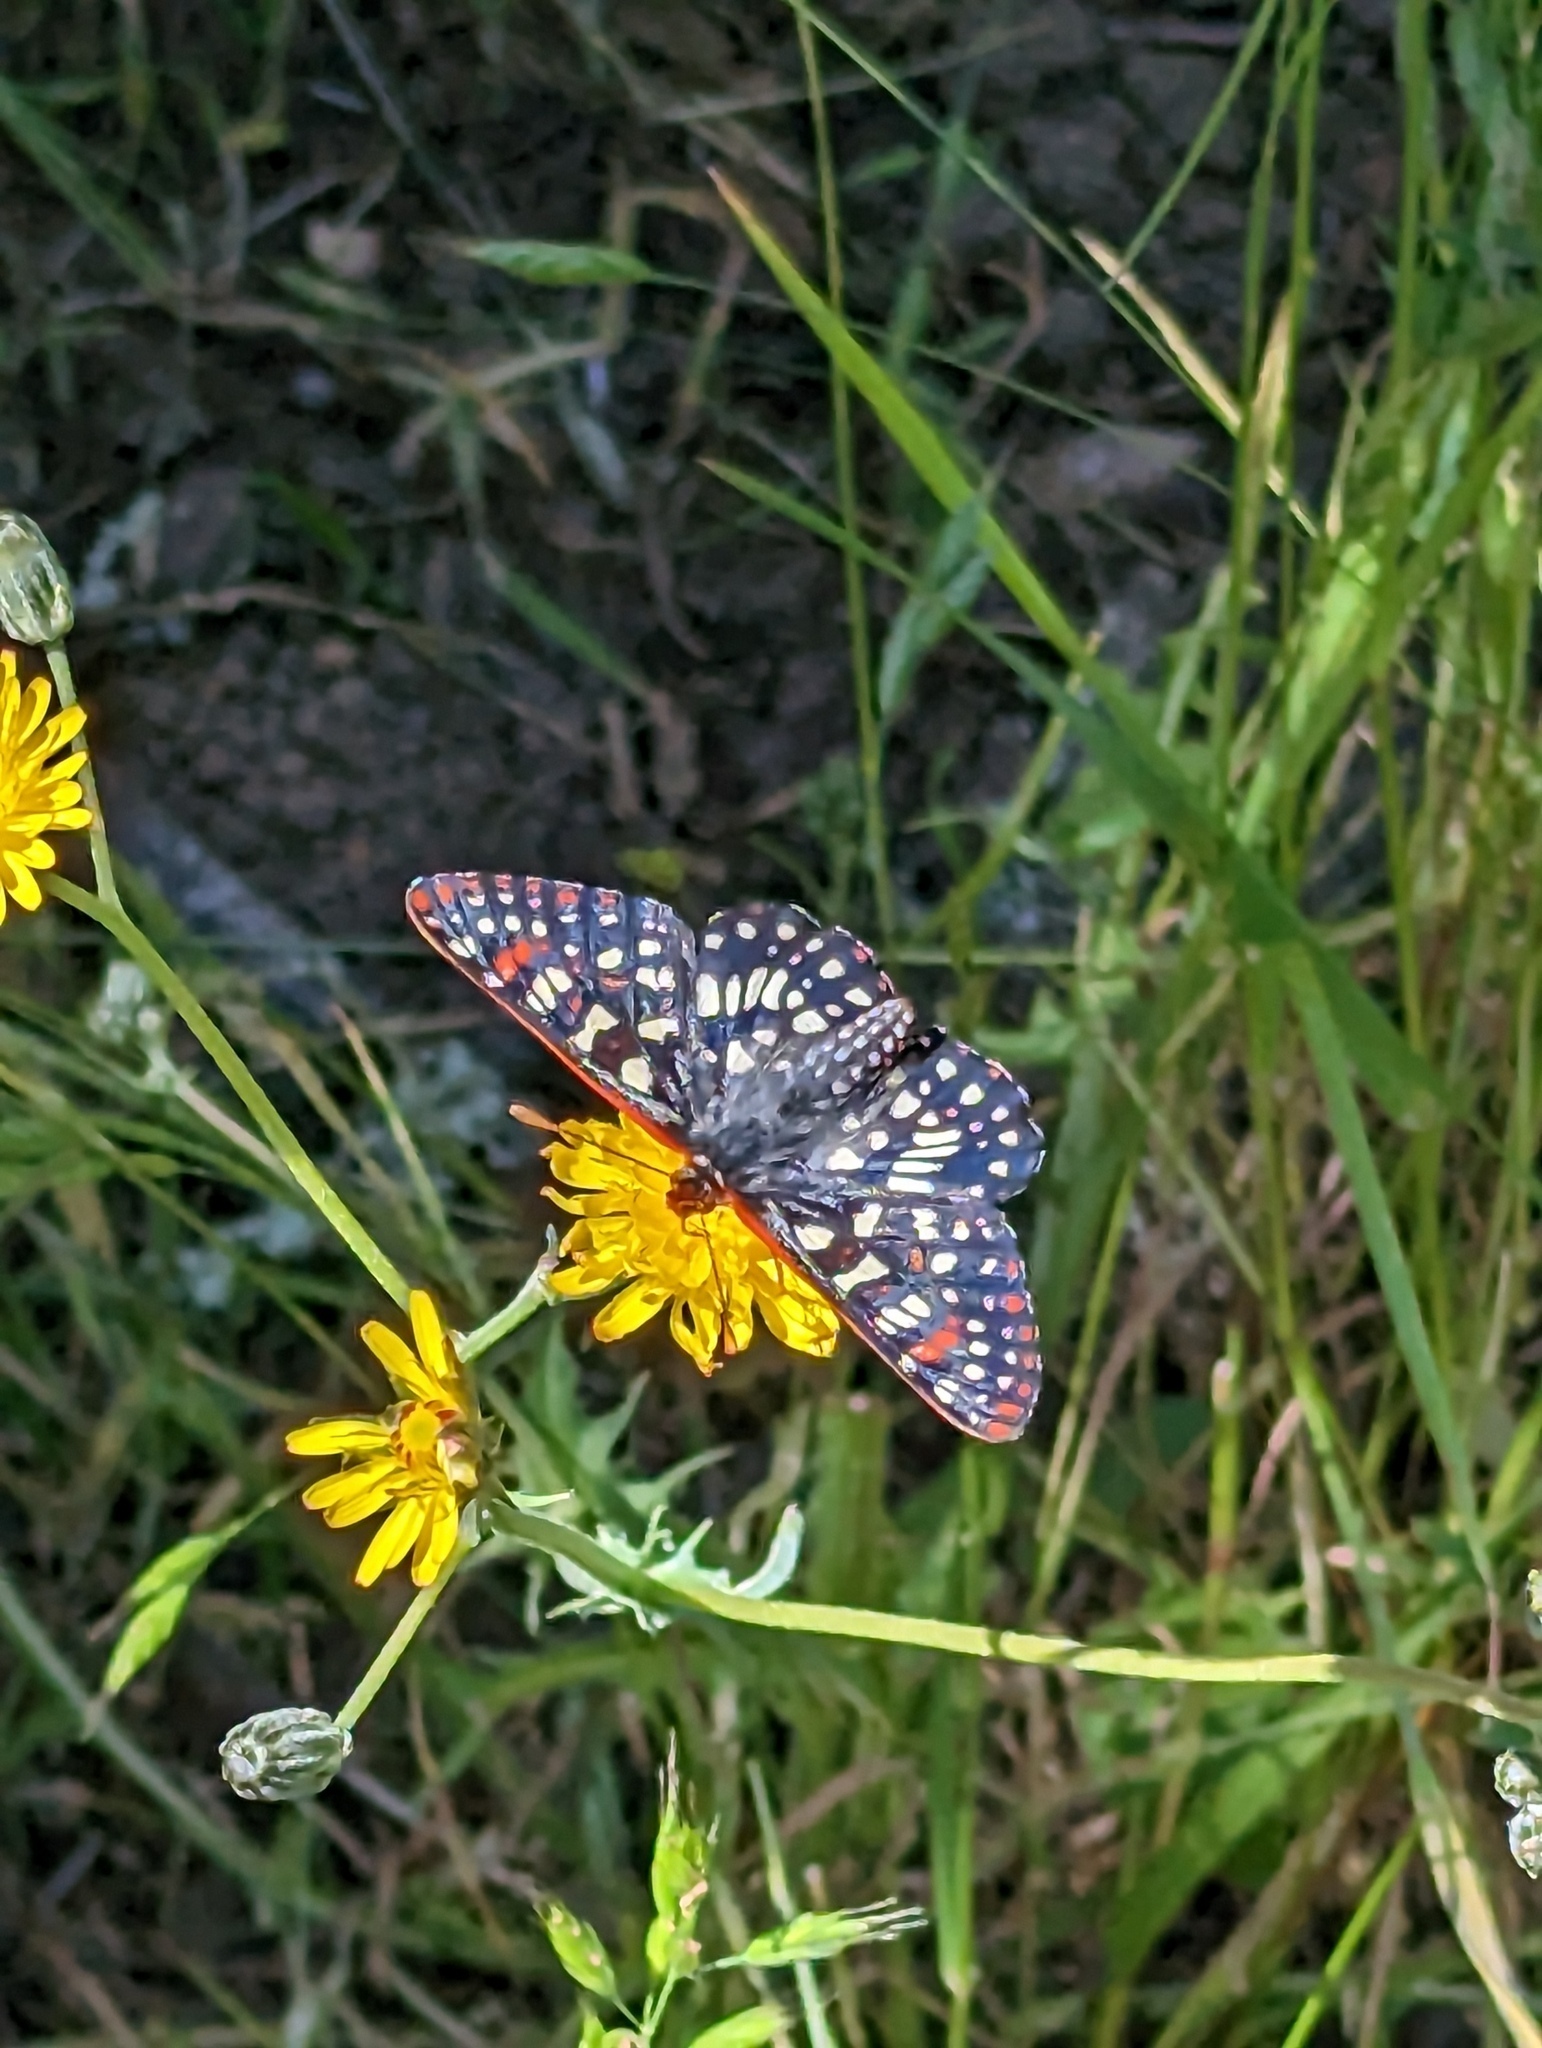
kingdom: Animalia
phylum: Arthropoda
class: Insecta
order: Lepidoptera
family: Nymphalidae
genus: Occidryas
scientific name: Occidryas chalcedona
